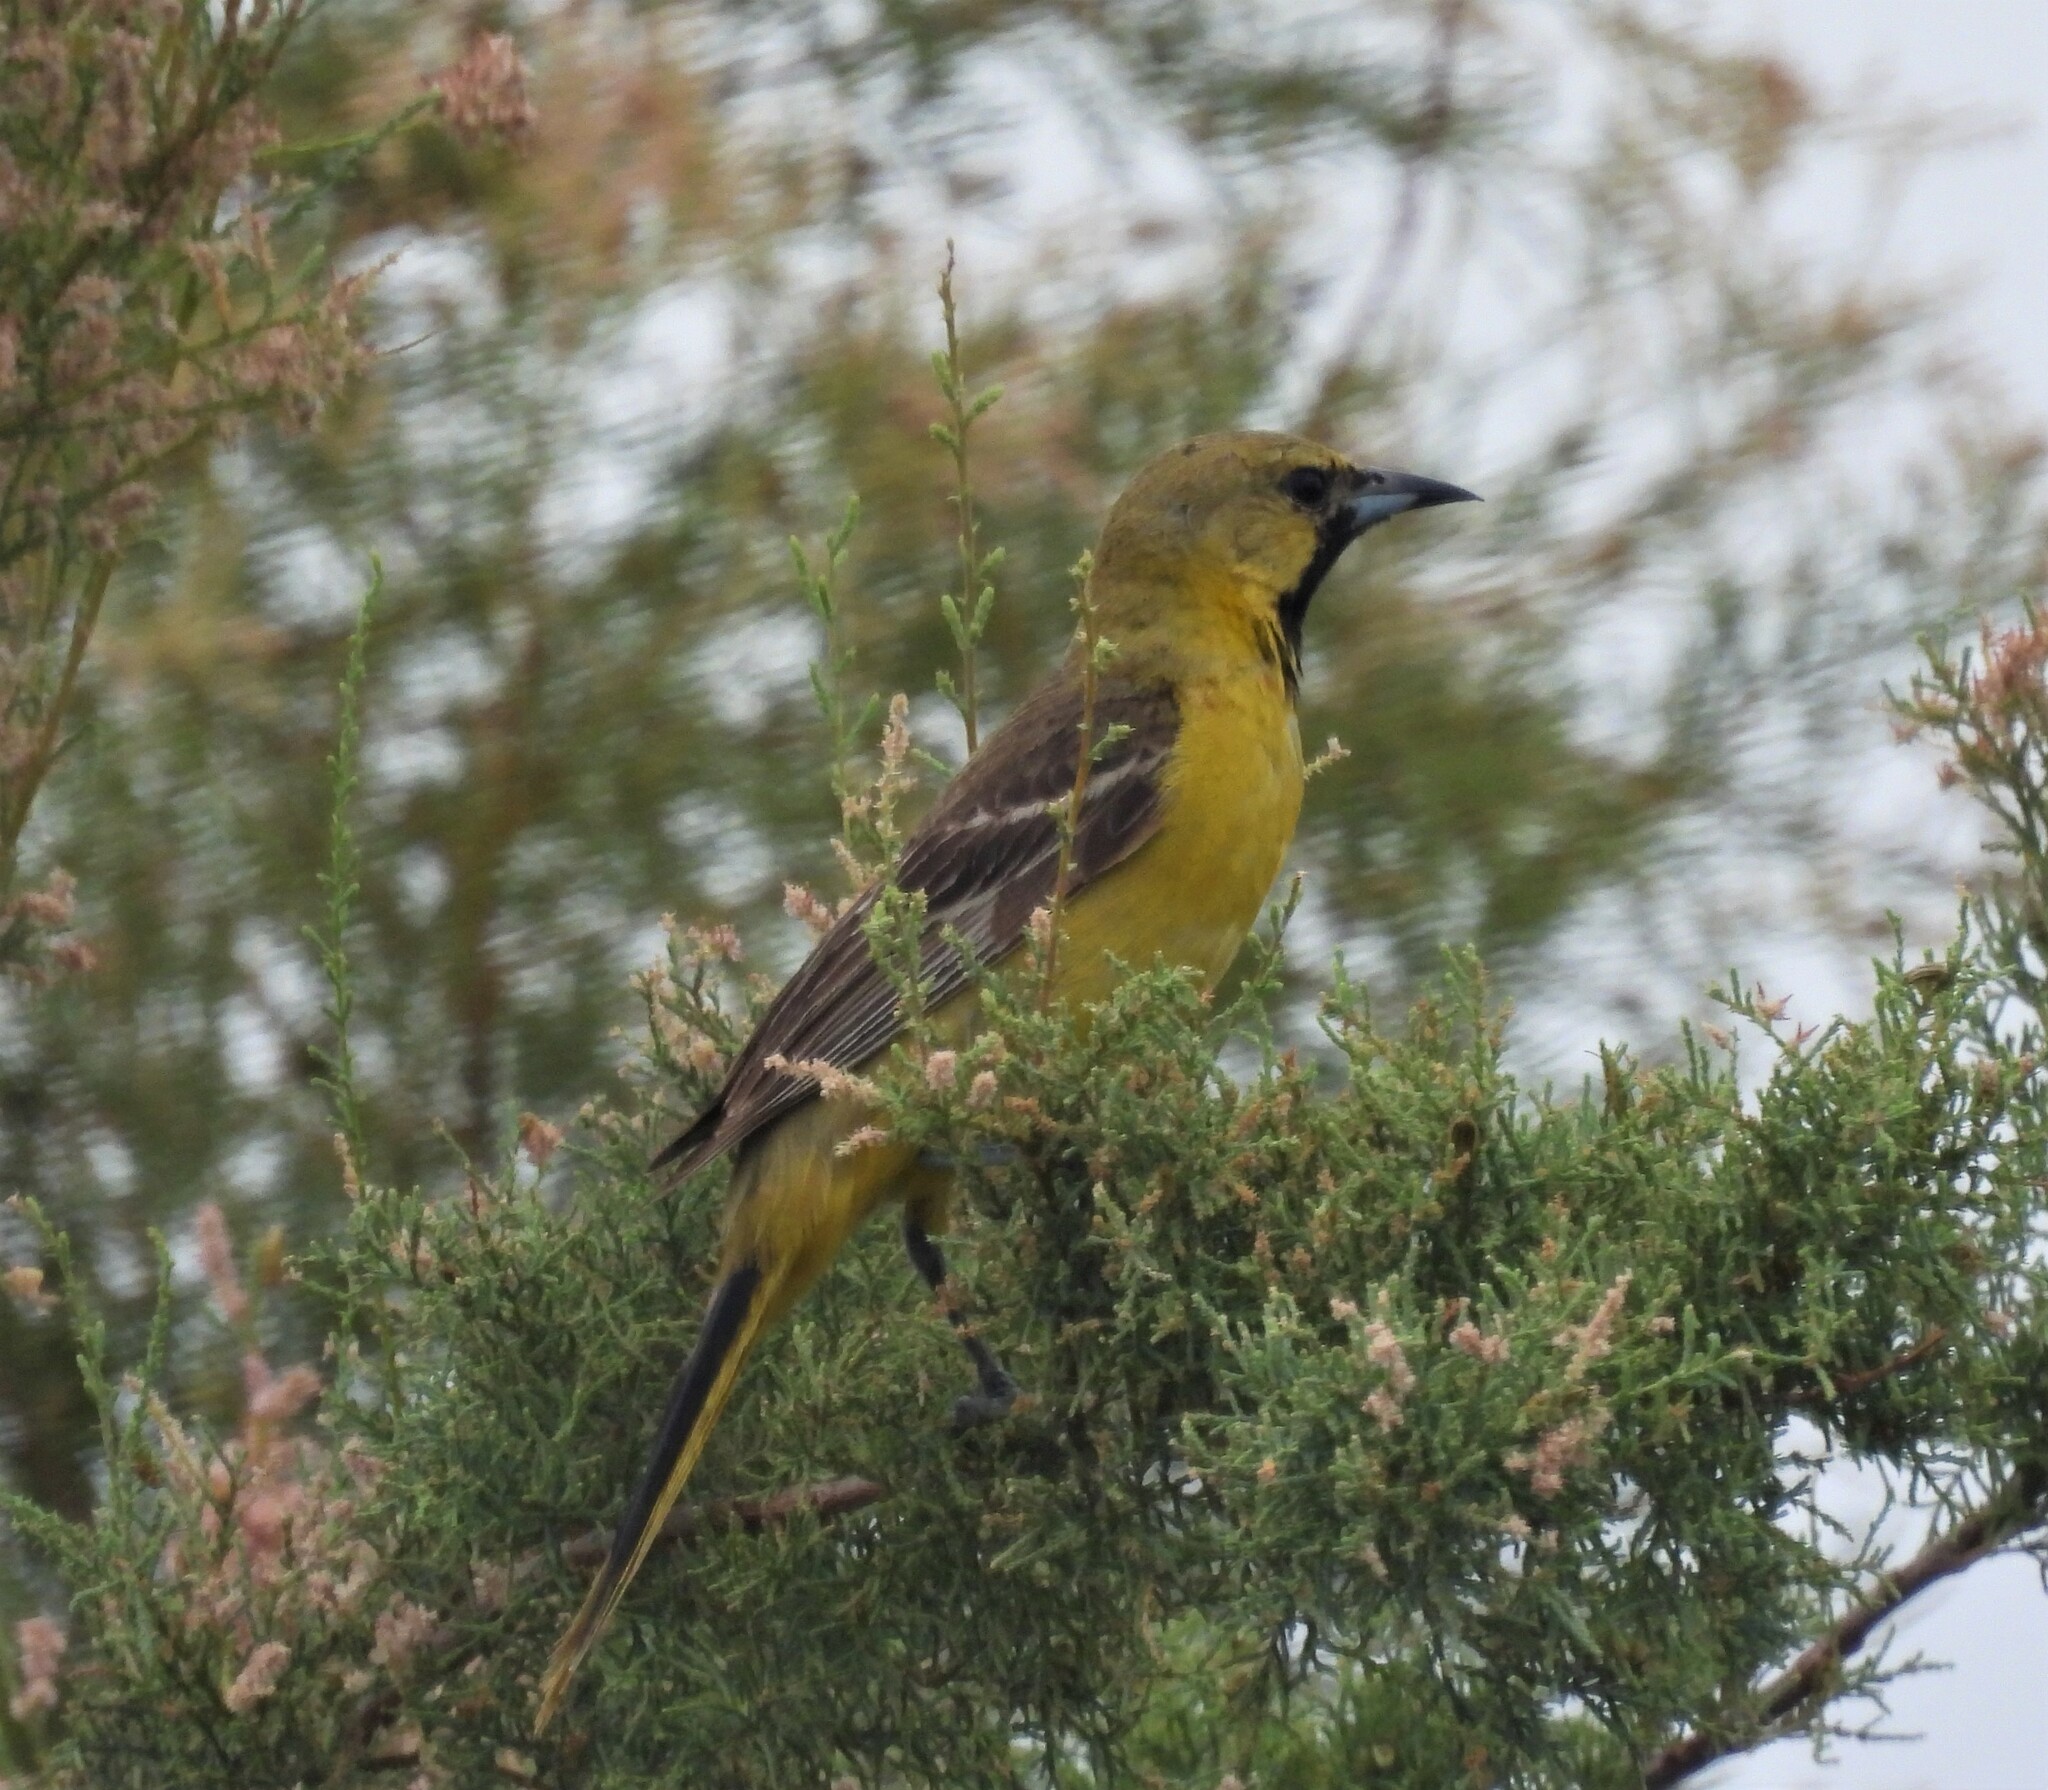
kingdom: Animalia
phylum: Chordata
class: Aves
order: Passeriformes
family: Icteridae
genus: Icterus
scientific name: Icterus spurius
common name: Orchard oriole
